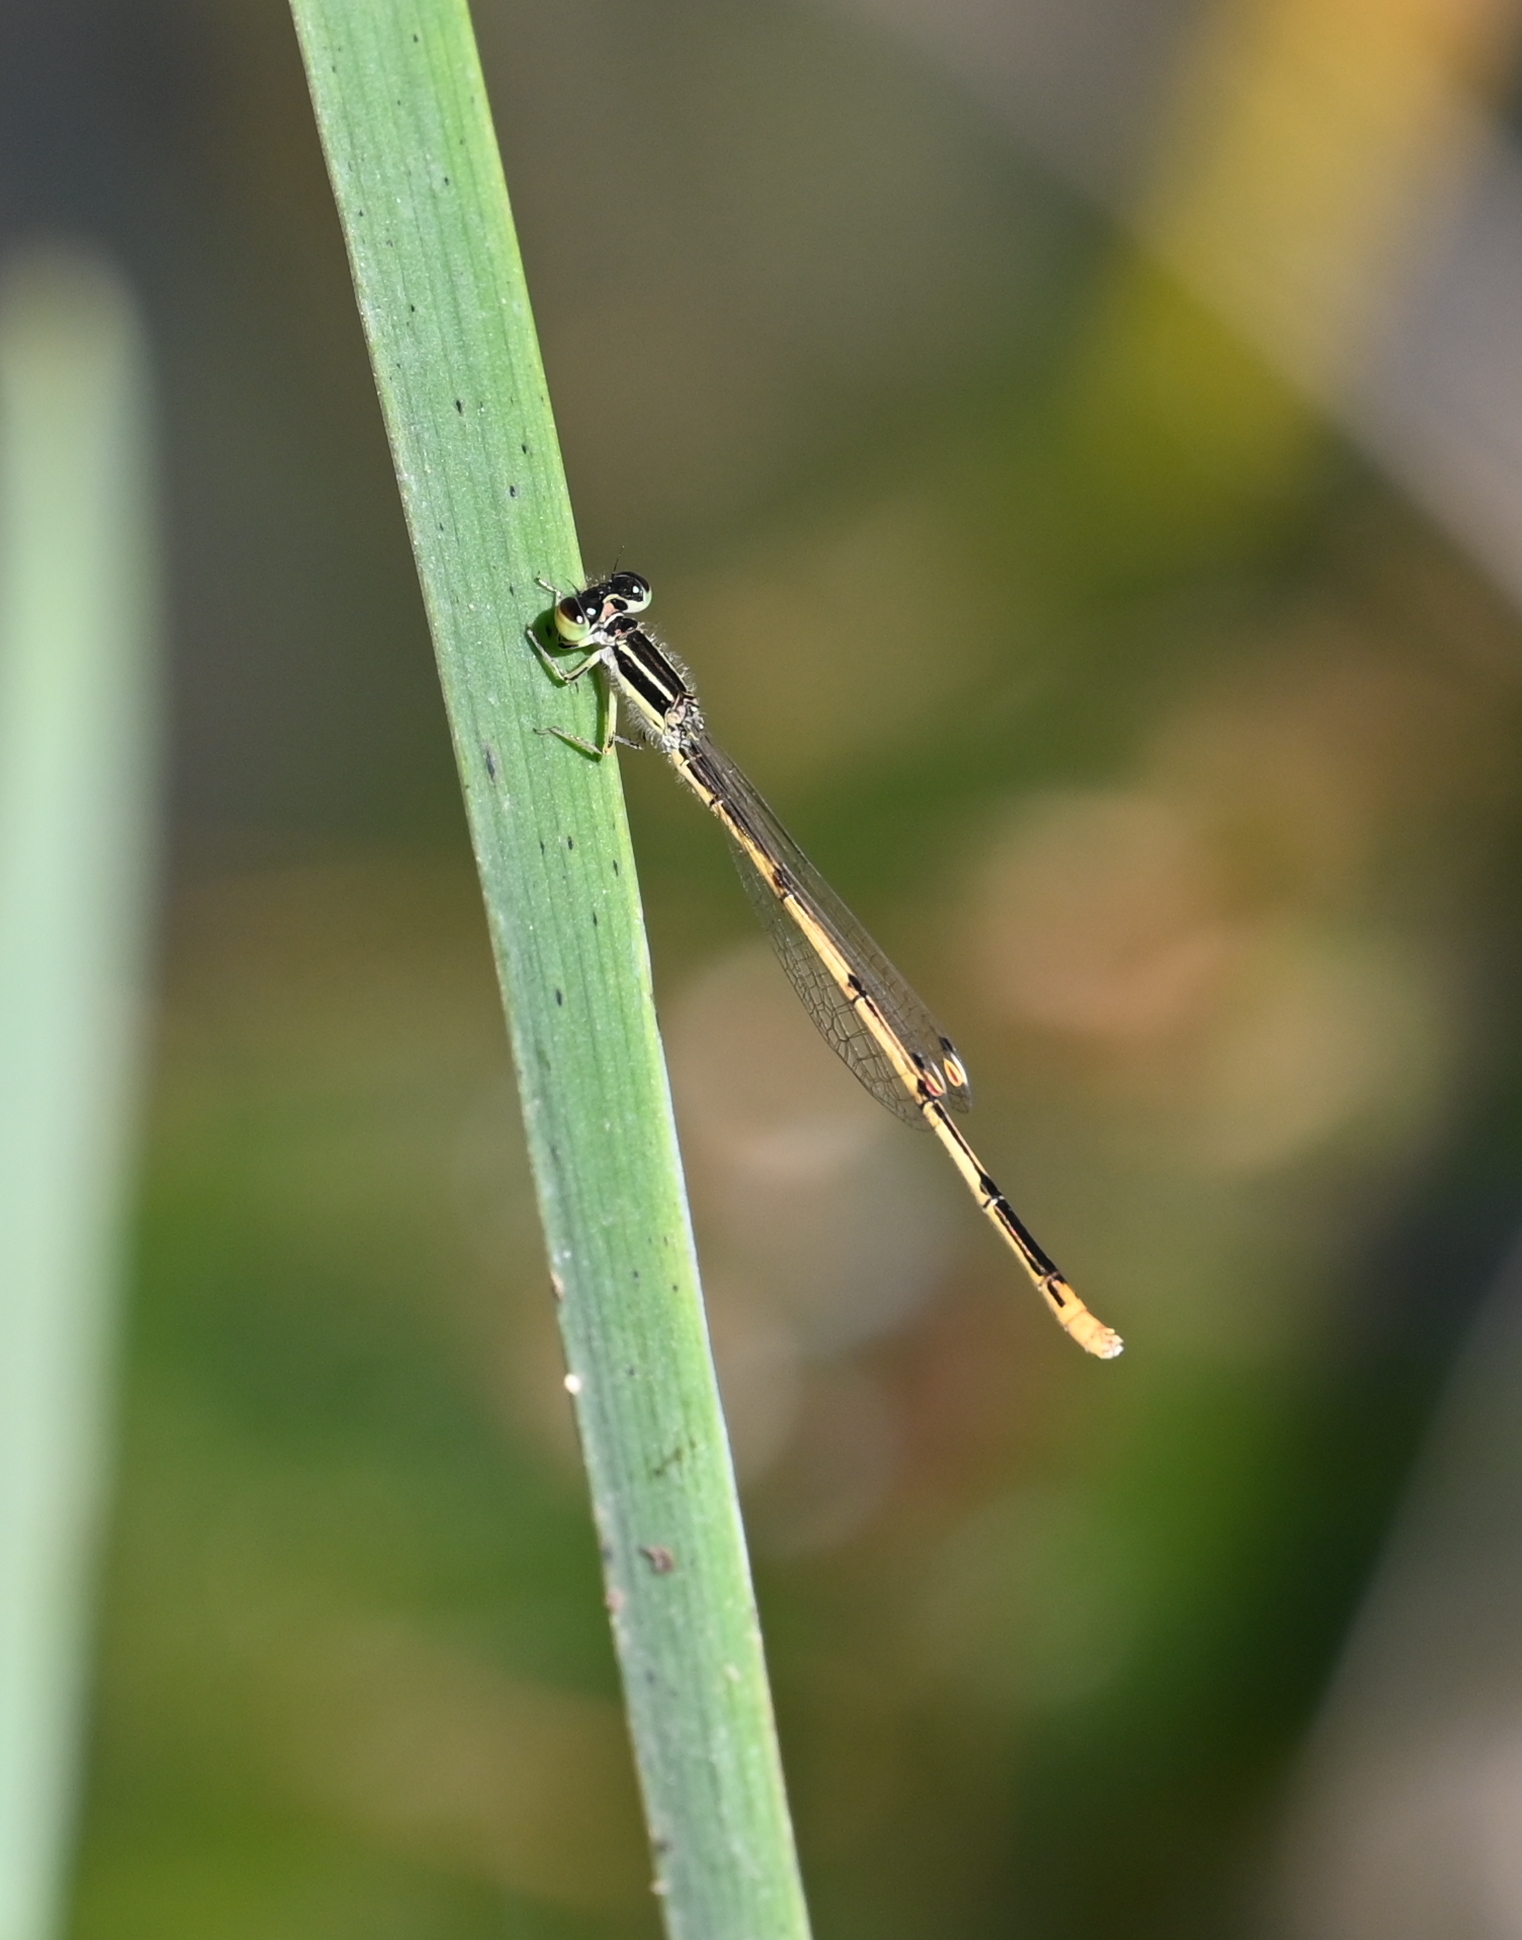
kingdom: Animalia
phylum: Arthropoda
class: Insecta
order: Odonata
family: Coenagrionidae
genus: Ischnura
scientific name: Ischnura hastata
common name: Citrine forktail
